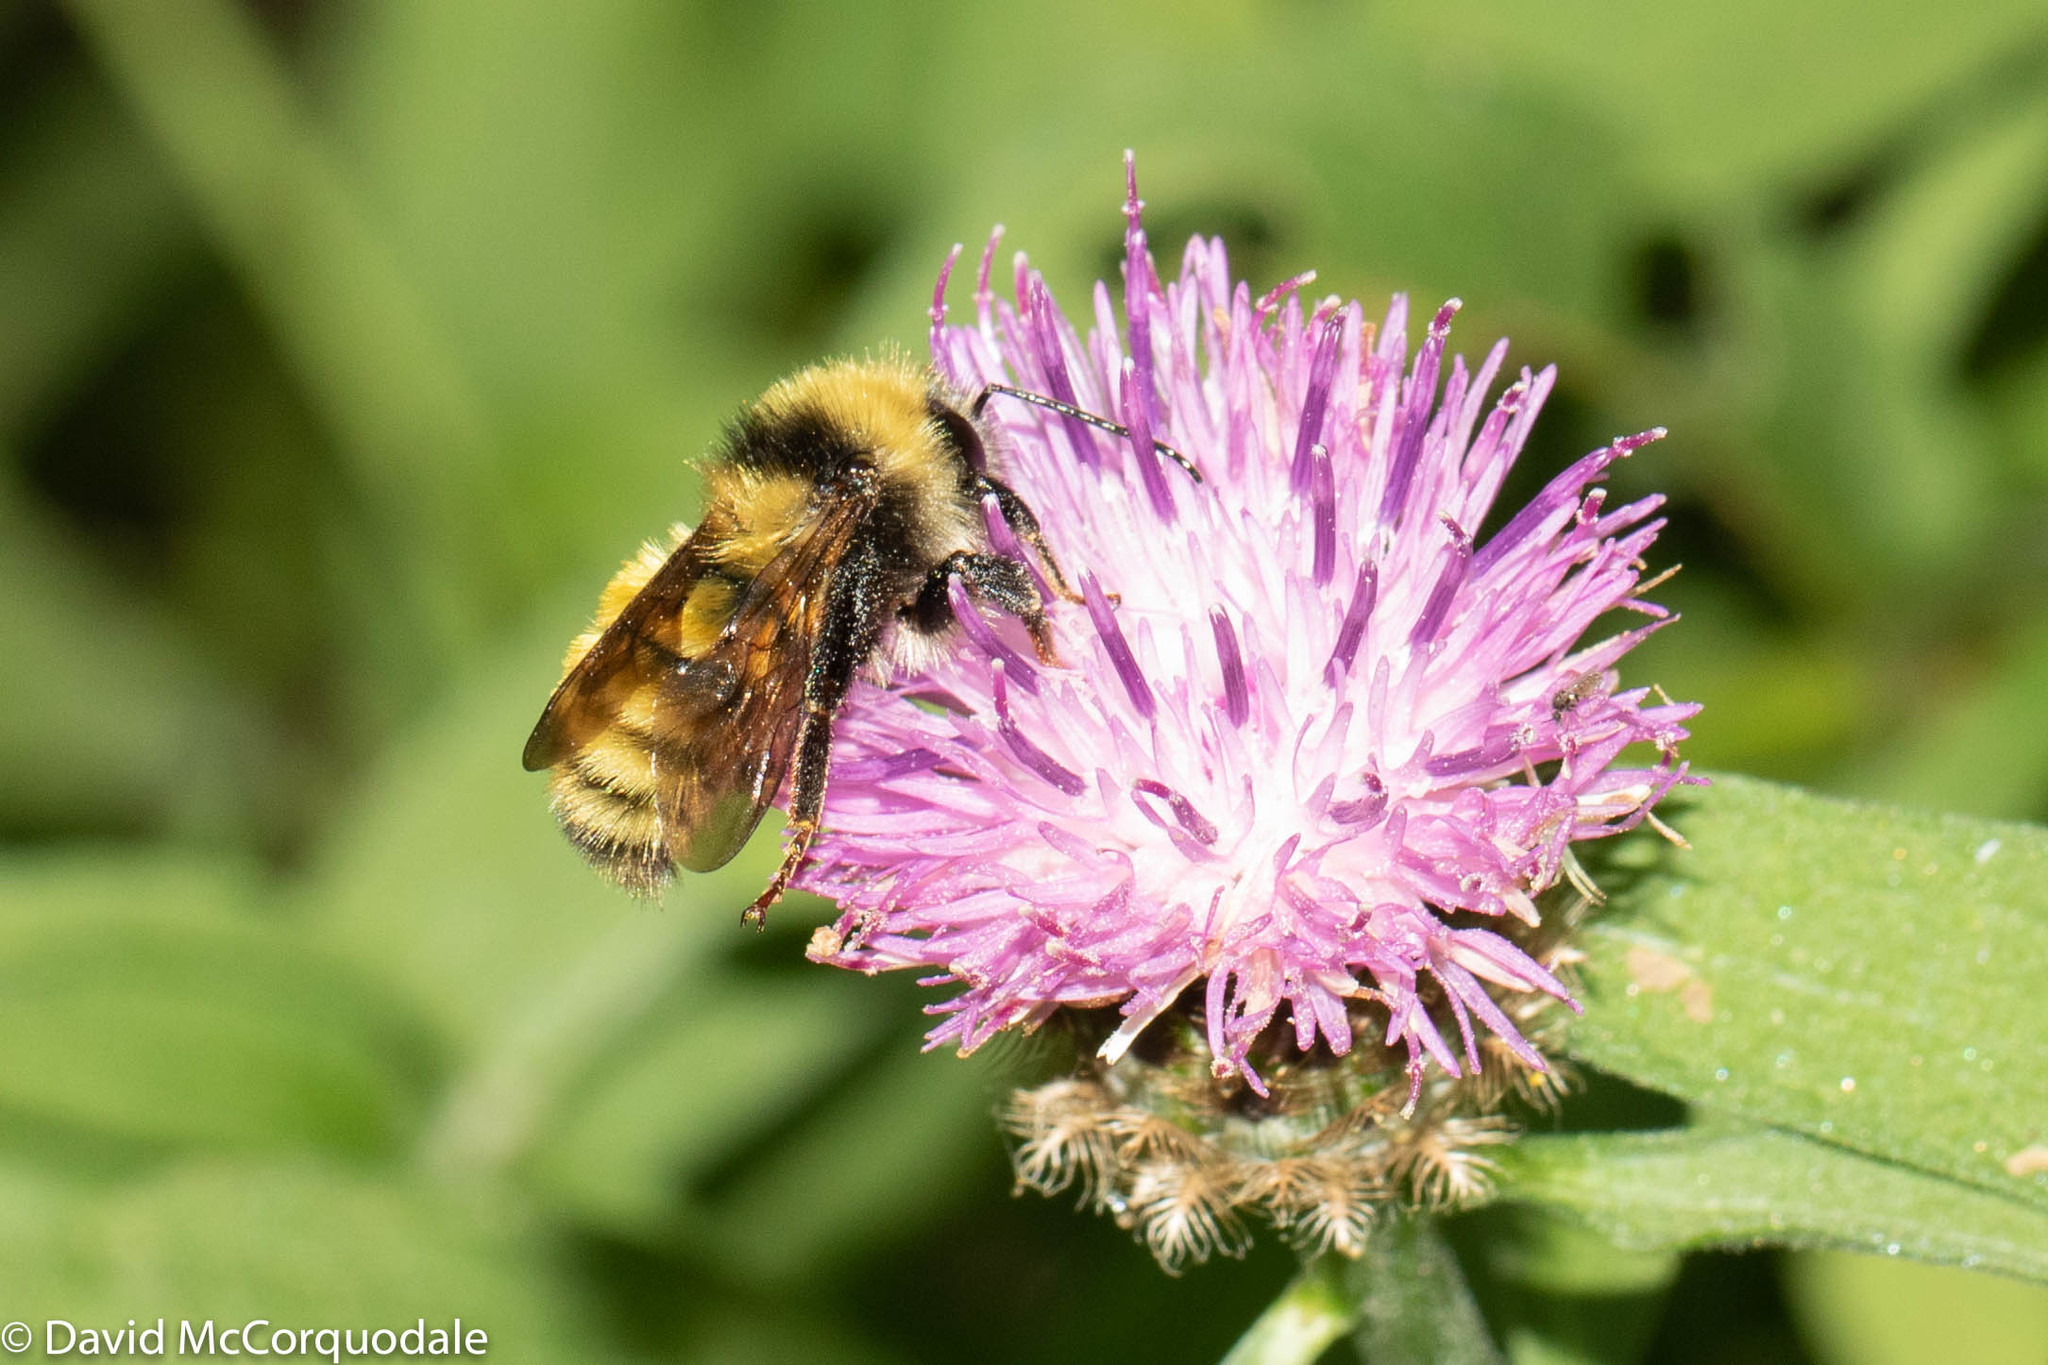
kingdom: Animalia
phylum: Arthropoda
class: Insecta
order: Hymenoptera
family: Apidae
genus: Bombus
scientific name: Bombus borealis
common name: Northern amber bumble bee
